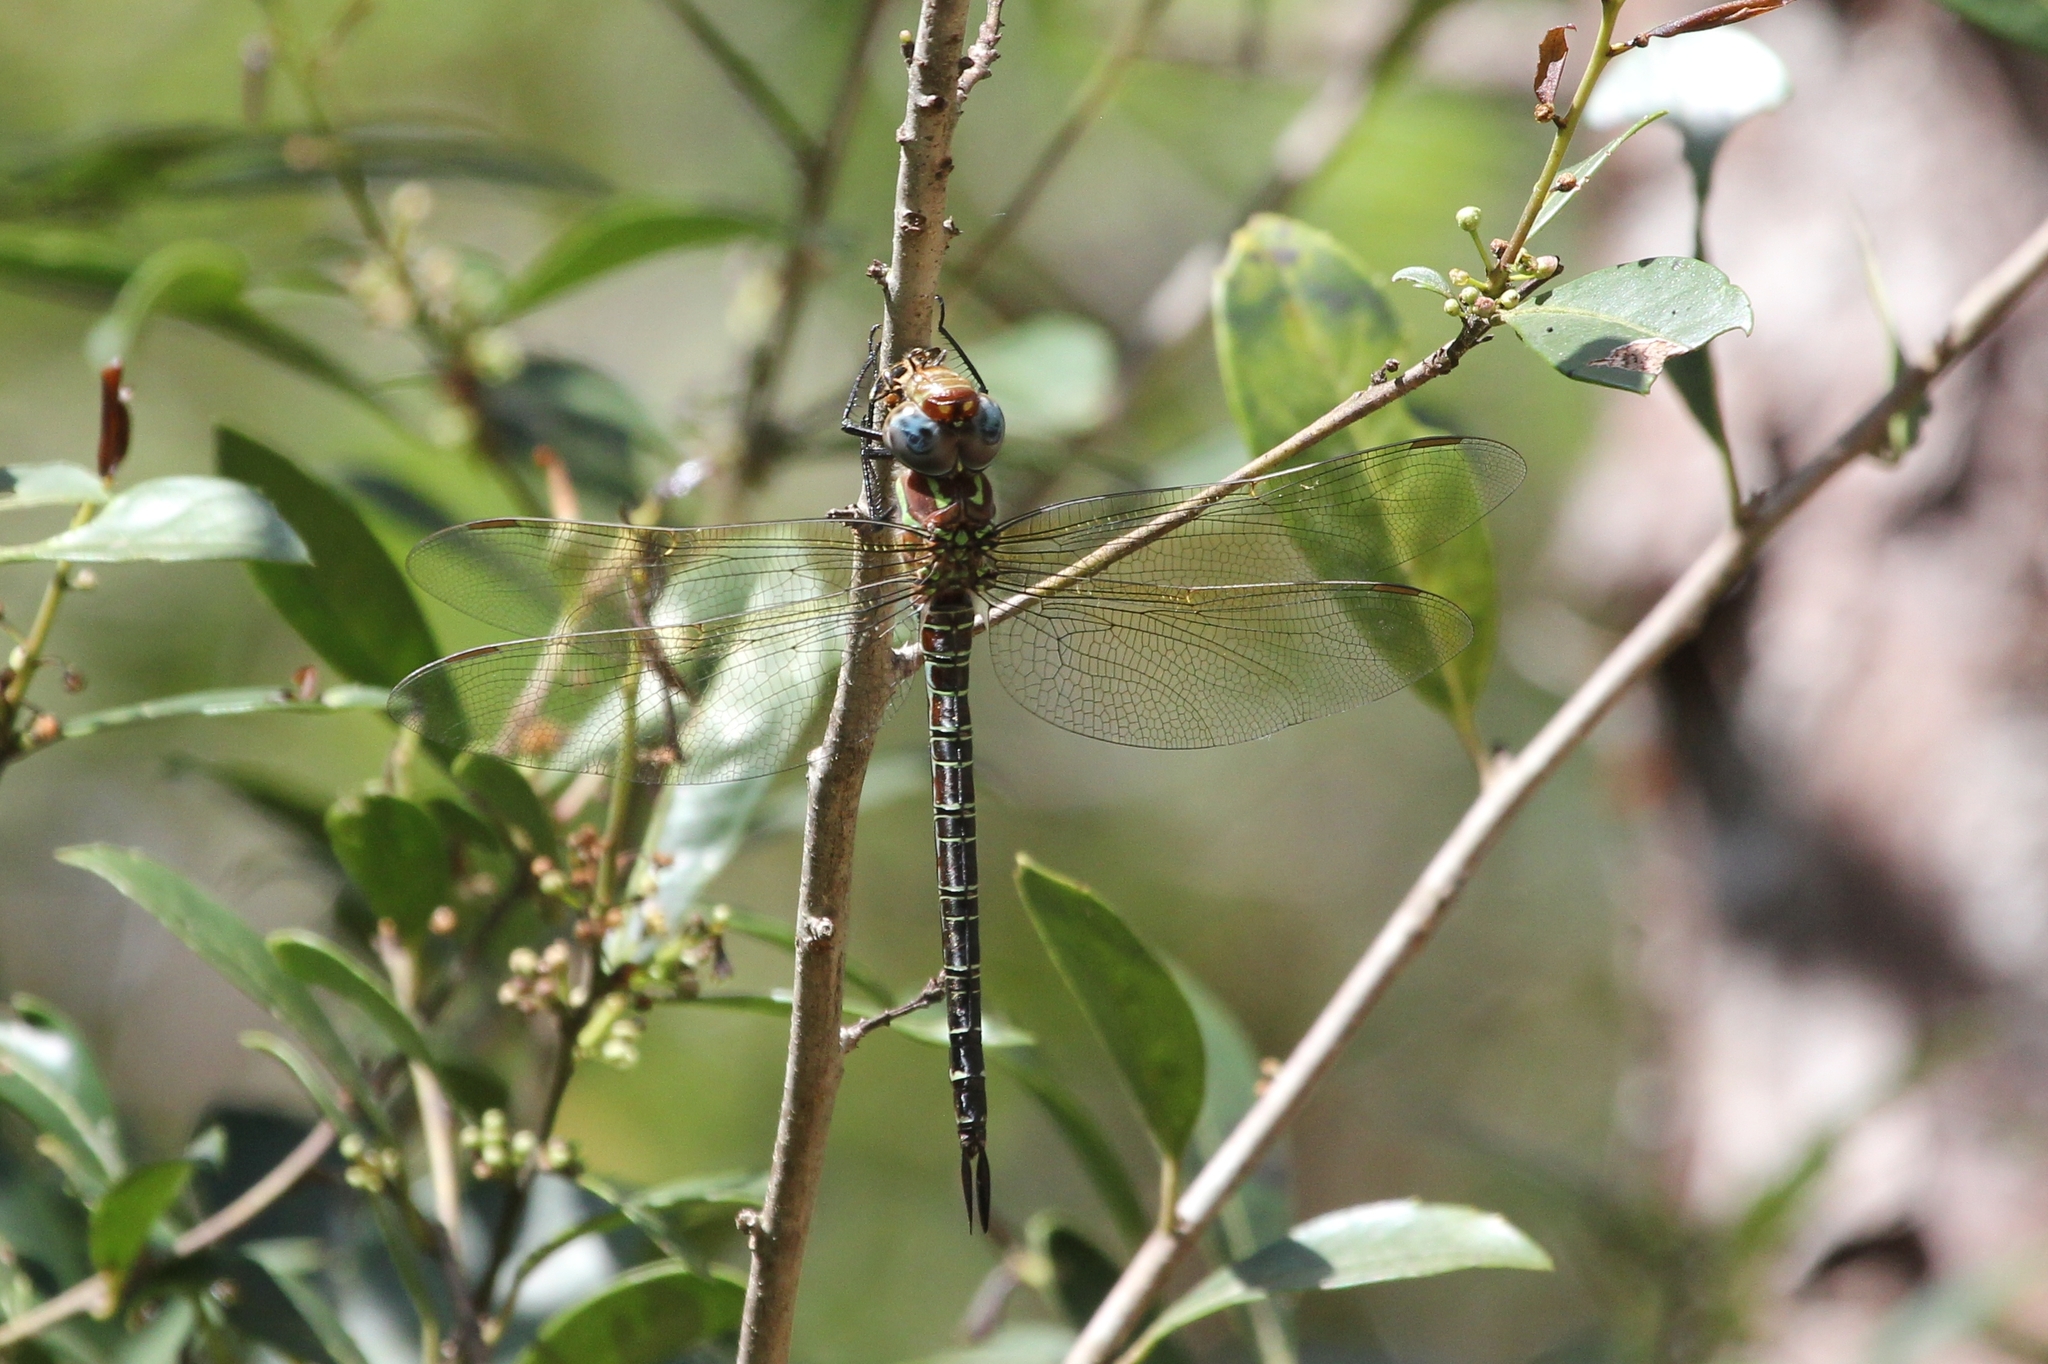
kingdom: Animalia
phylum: Arthropoda
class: Insecta
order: Odonata
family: Aeshnidae
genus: Epiaeschna
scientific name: Epiaeschna heros
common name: Swamp darner
